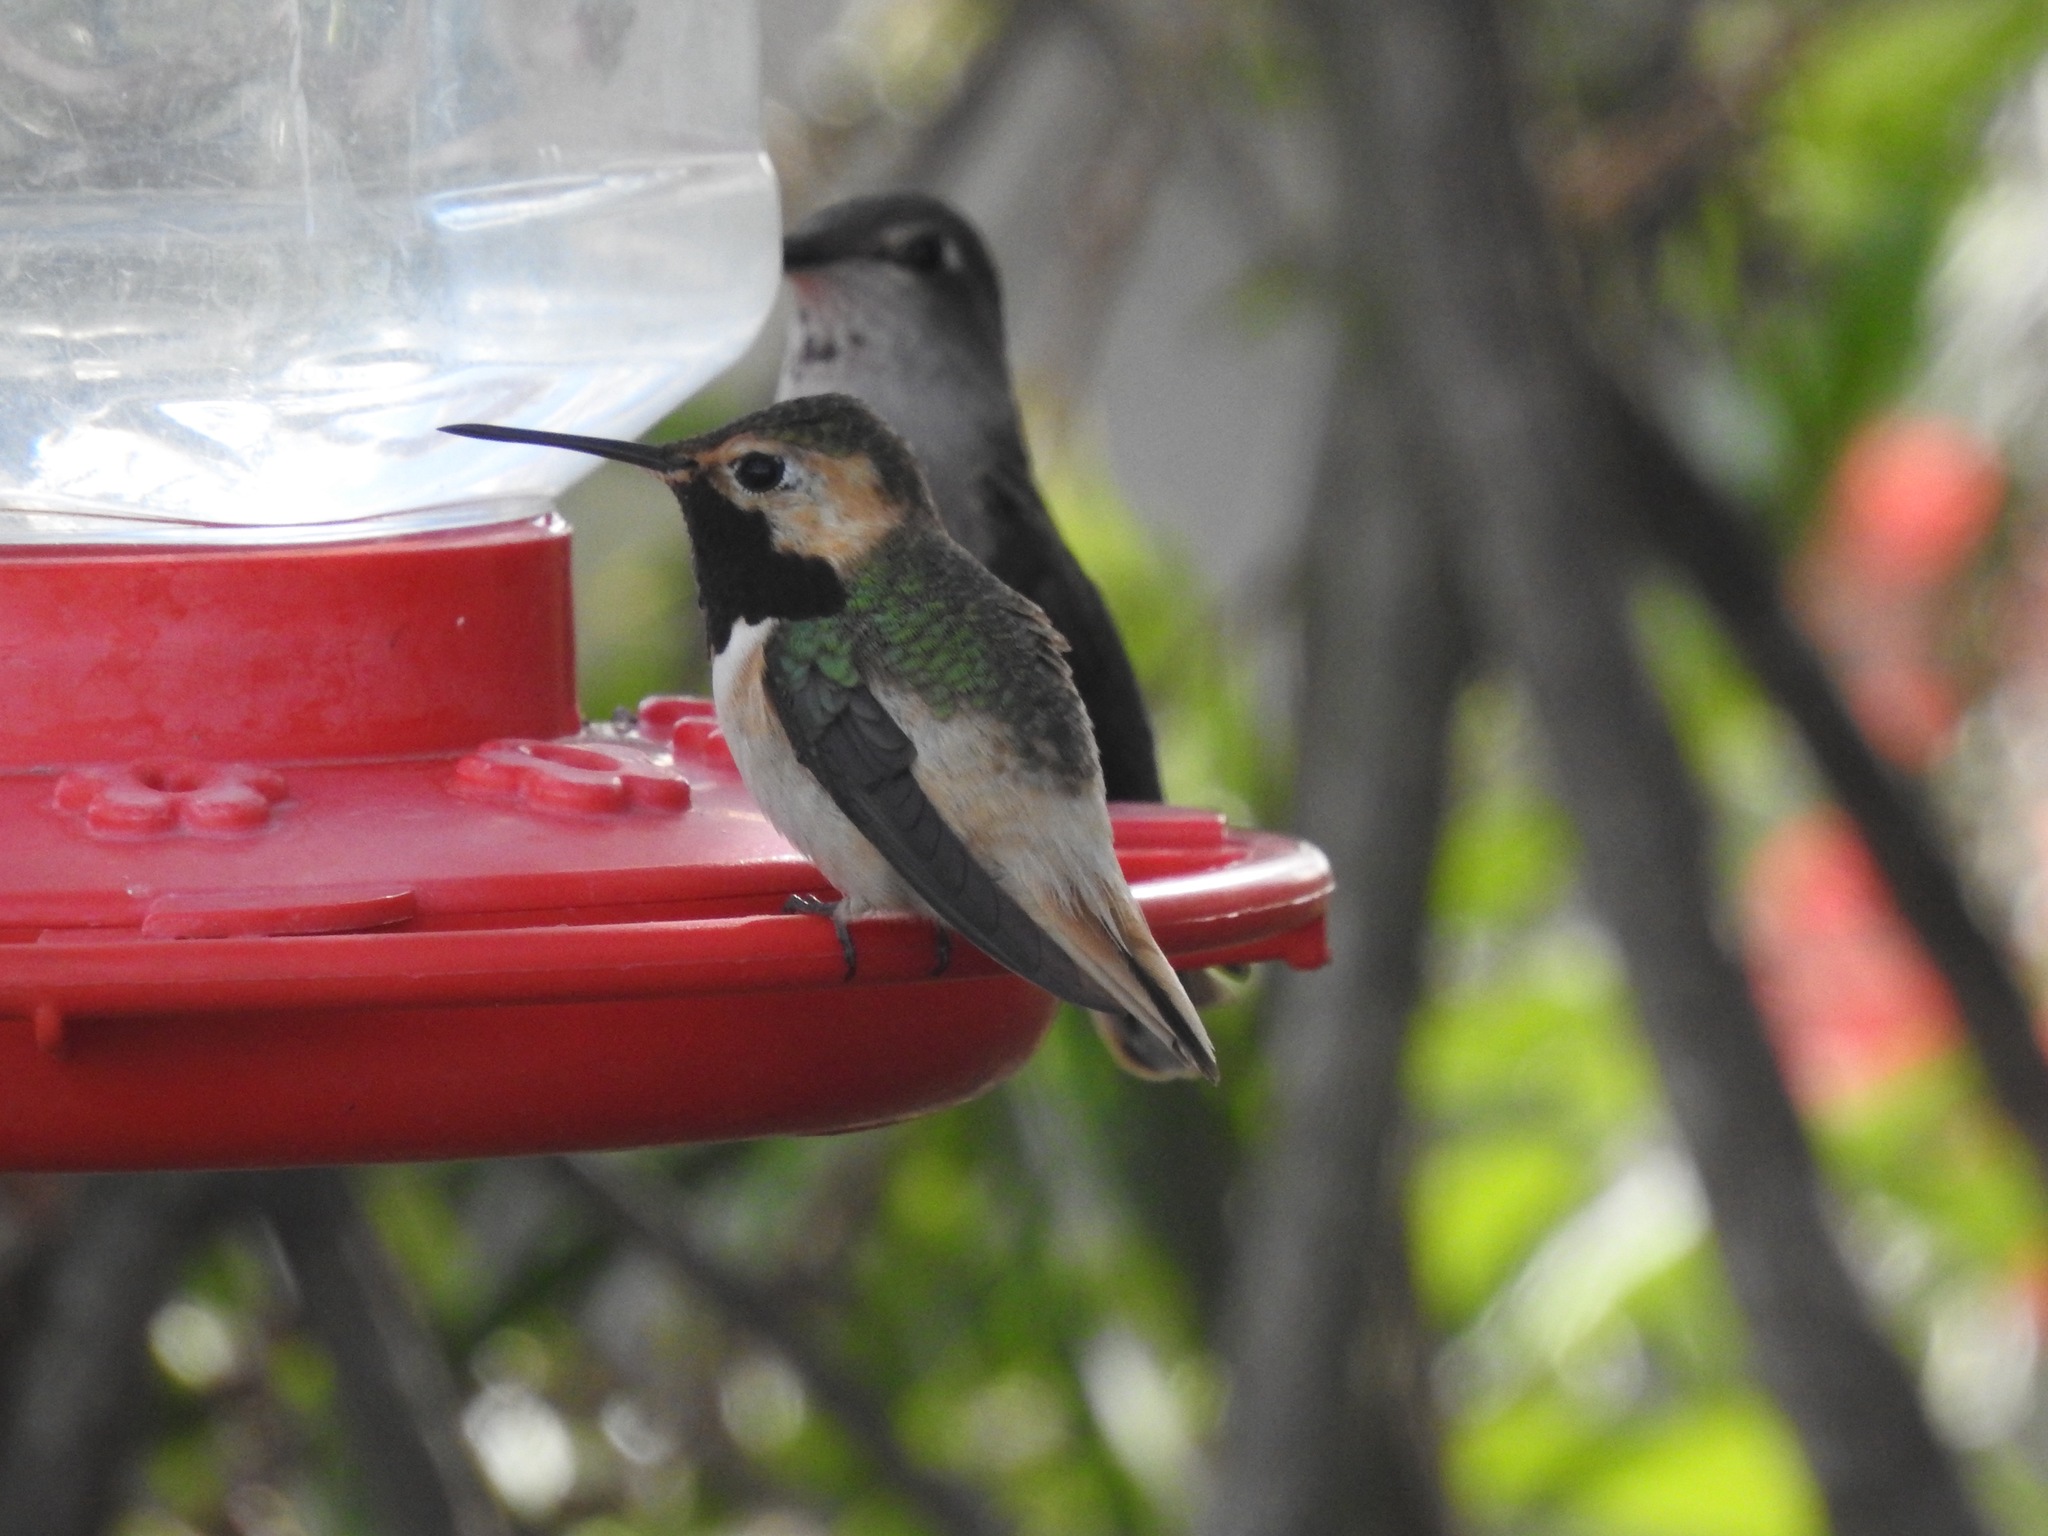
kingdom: Animalia
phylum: Chordata
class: Aves
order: Apodiformes
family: Trochilidae
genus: Selasphorus
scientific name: Selasphorus sasin
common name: Allen's hummingbird
